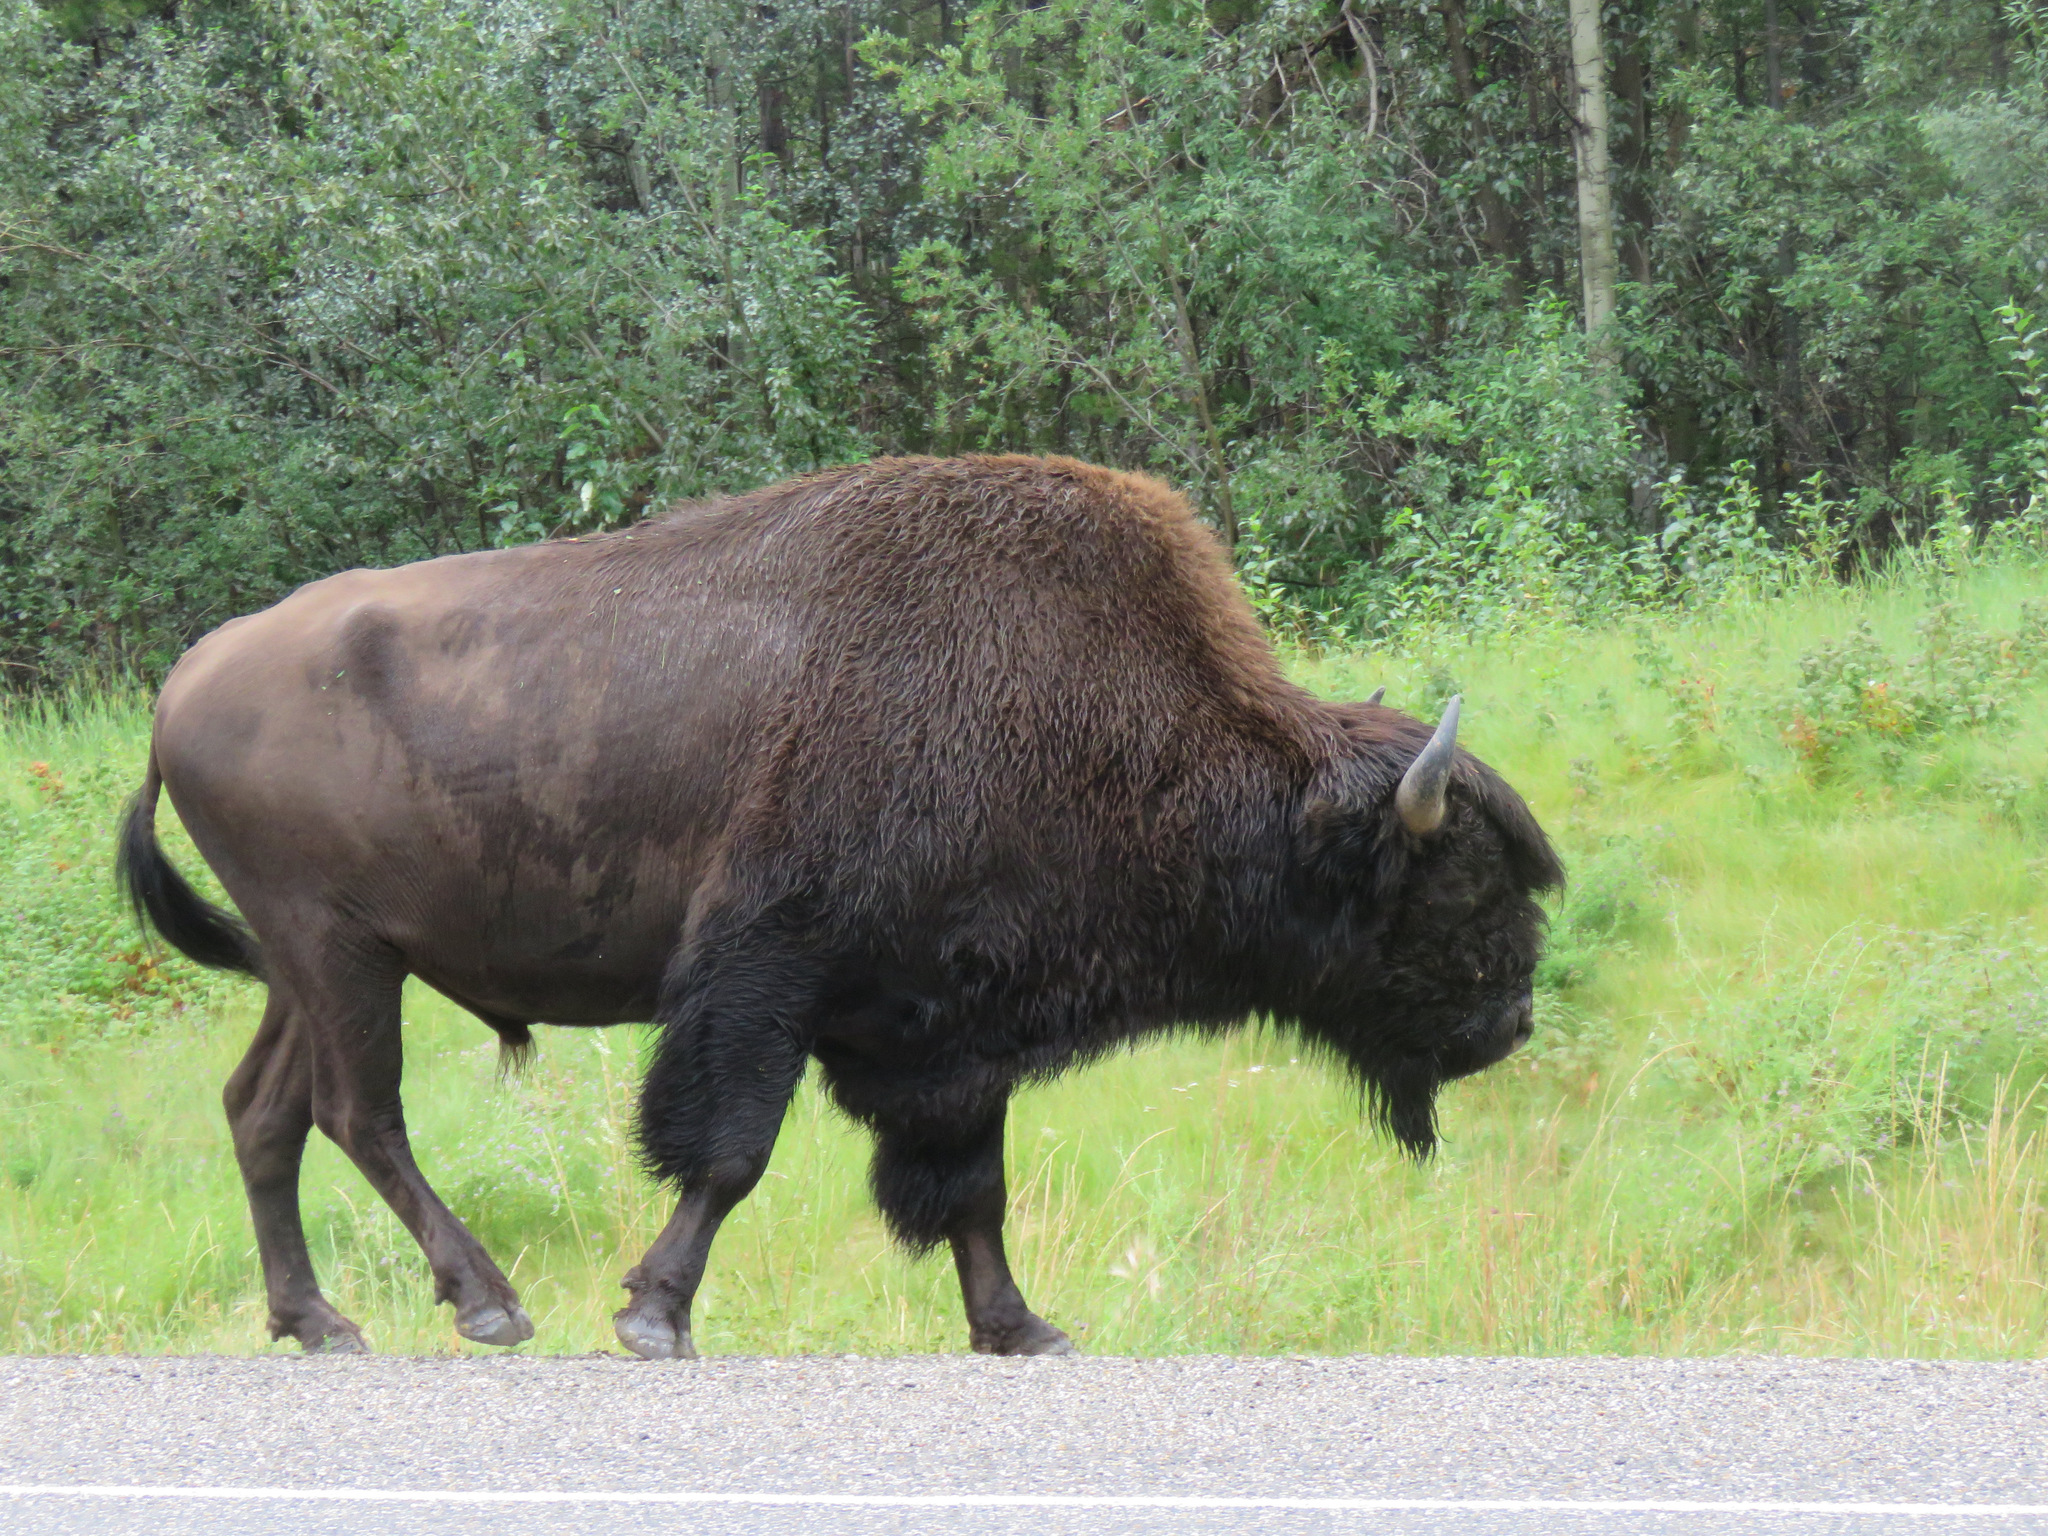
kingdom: Animalia
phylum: Chordata
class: Mammalia
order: Artiodactyla
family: Bovidae
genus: Bison
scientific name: Bison bison
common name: American bison
